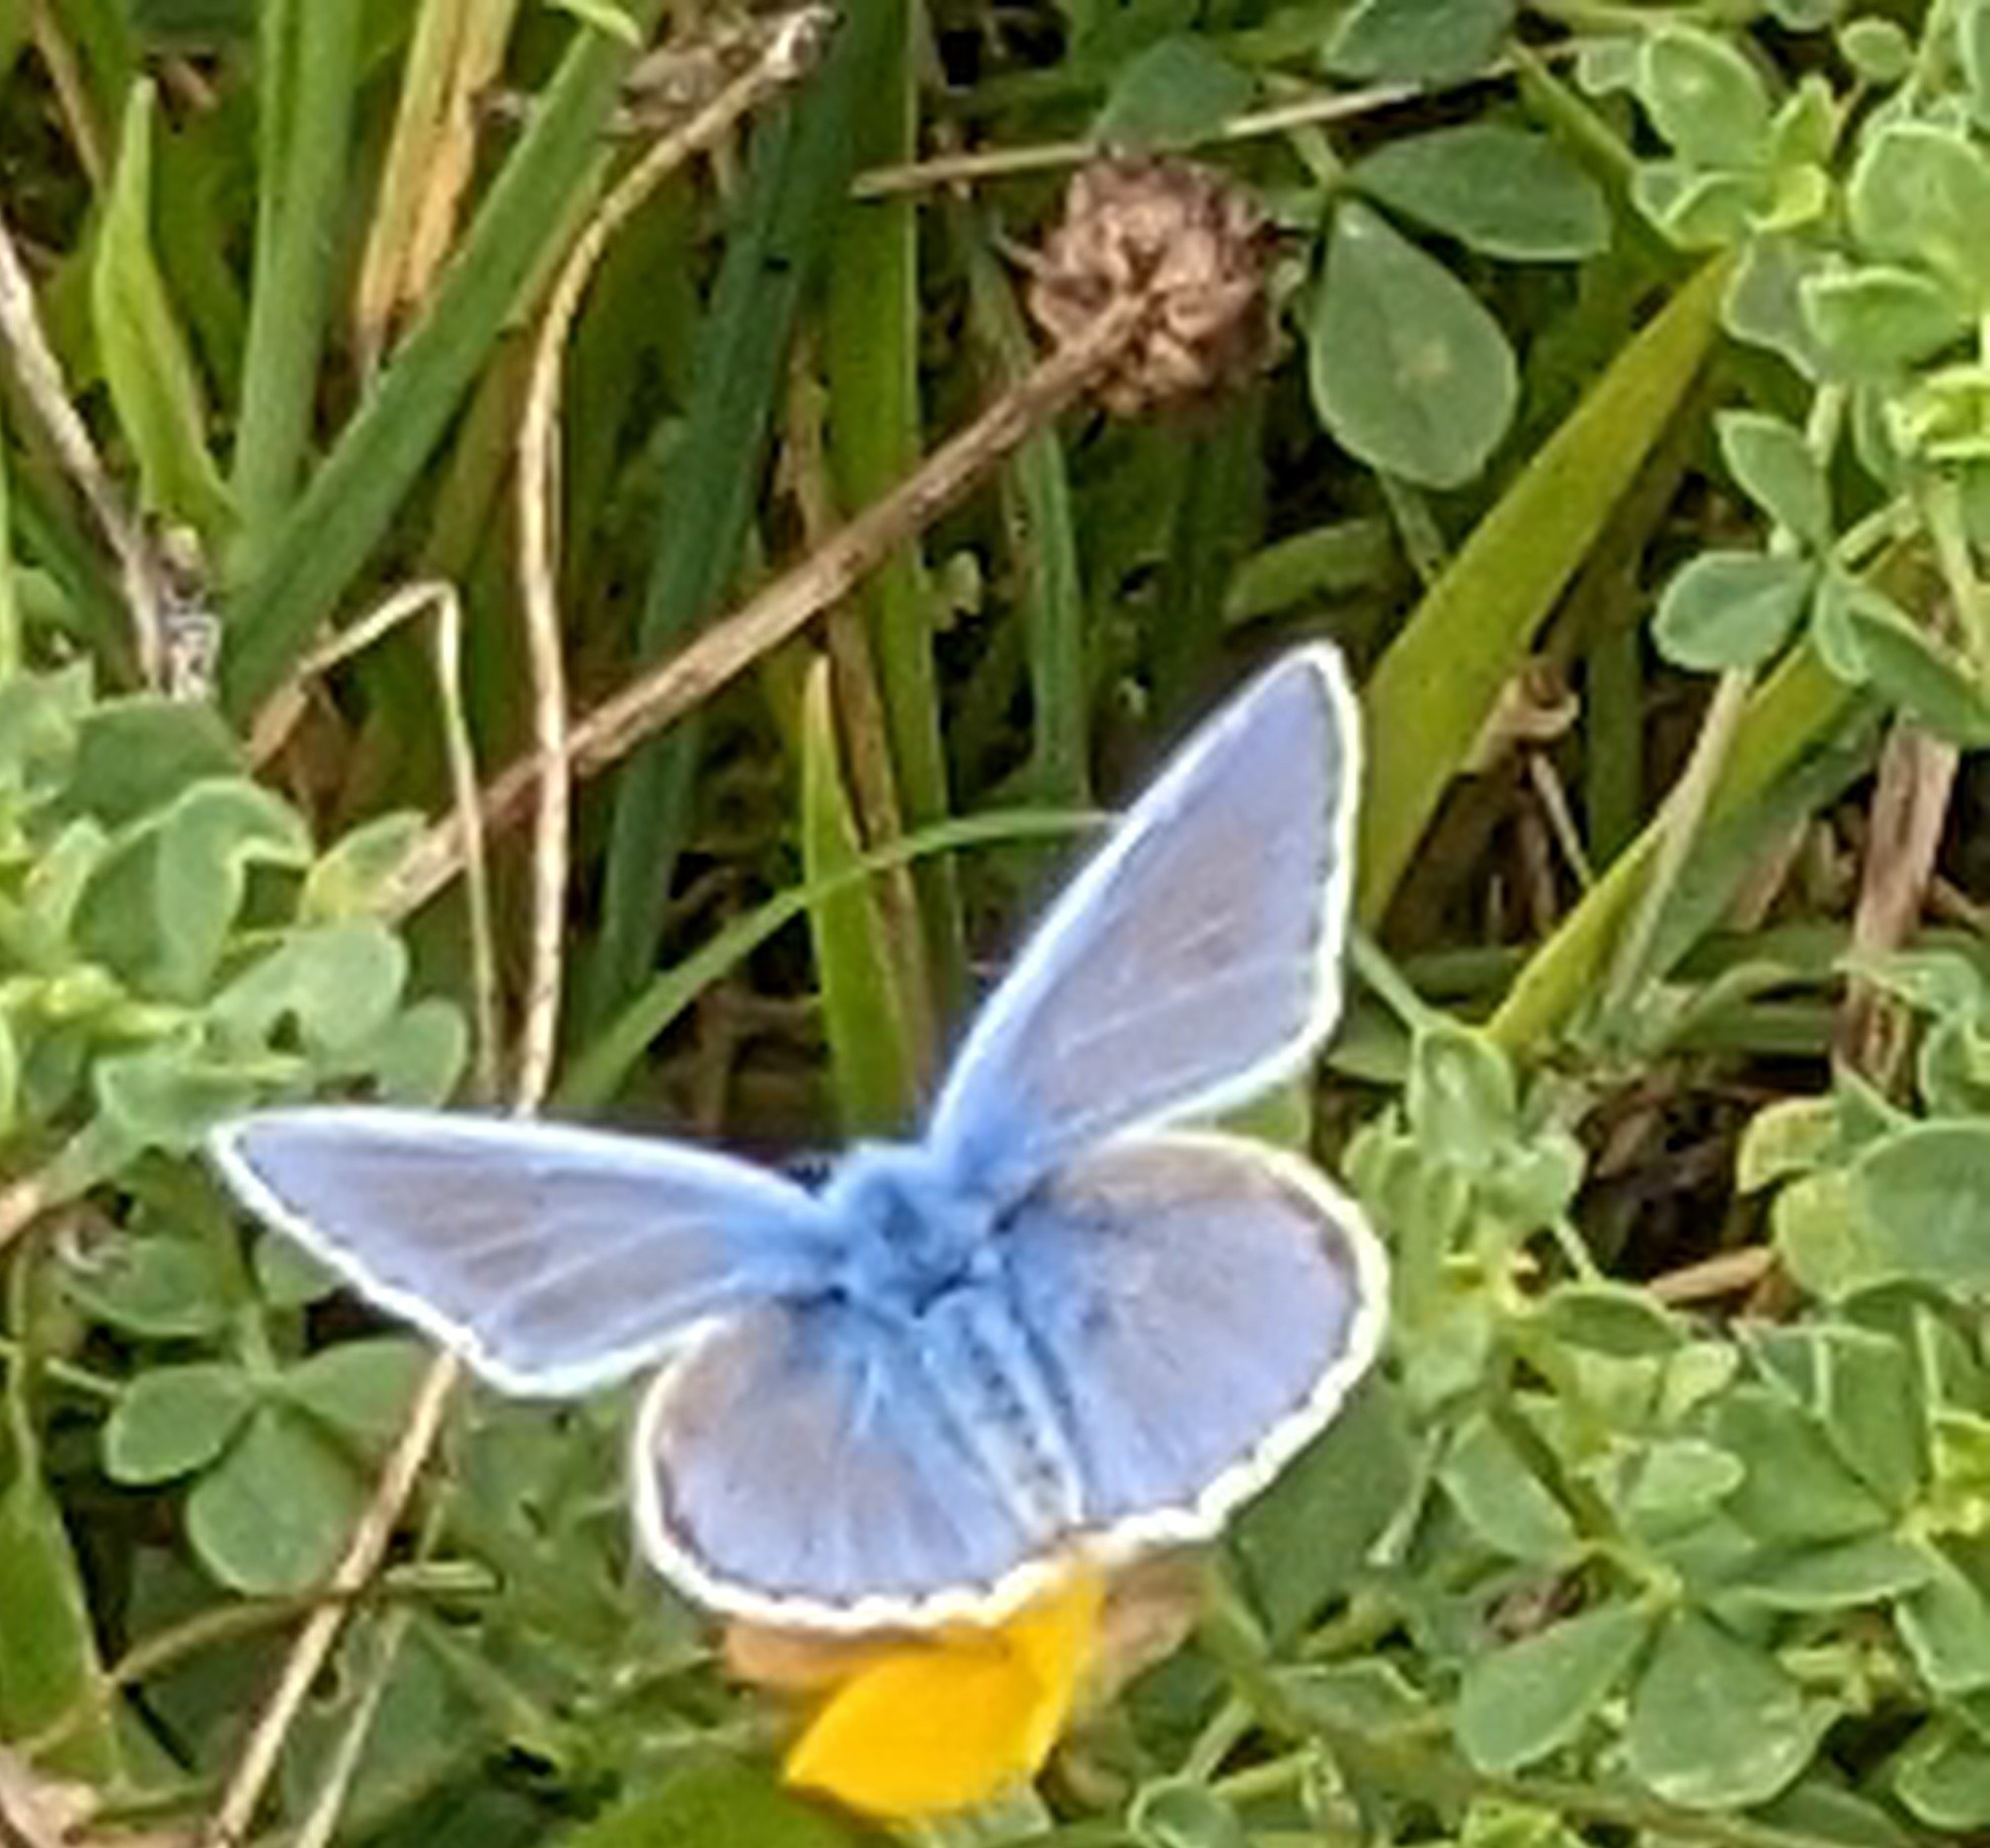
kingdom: Animalia
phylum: Arthropoda
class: Insecta
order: Lepidoptera
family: Lycaenidae
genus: Polyommatus
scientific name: Polyommatus icarus
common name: Common blue
